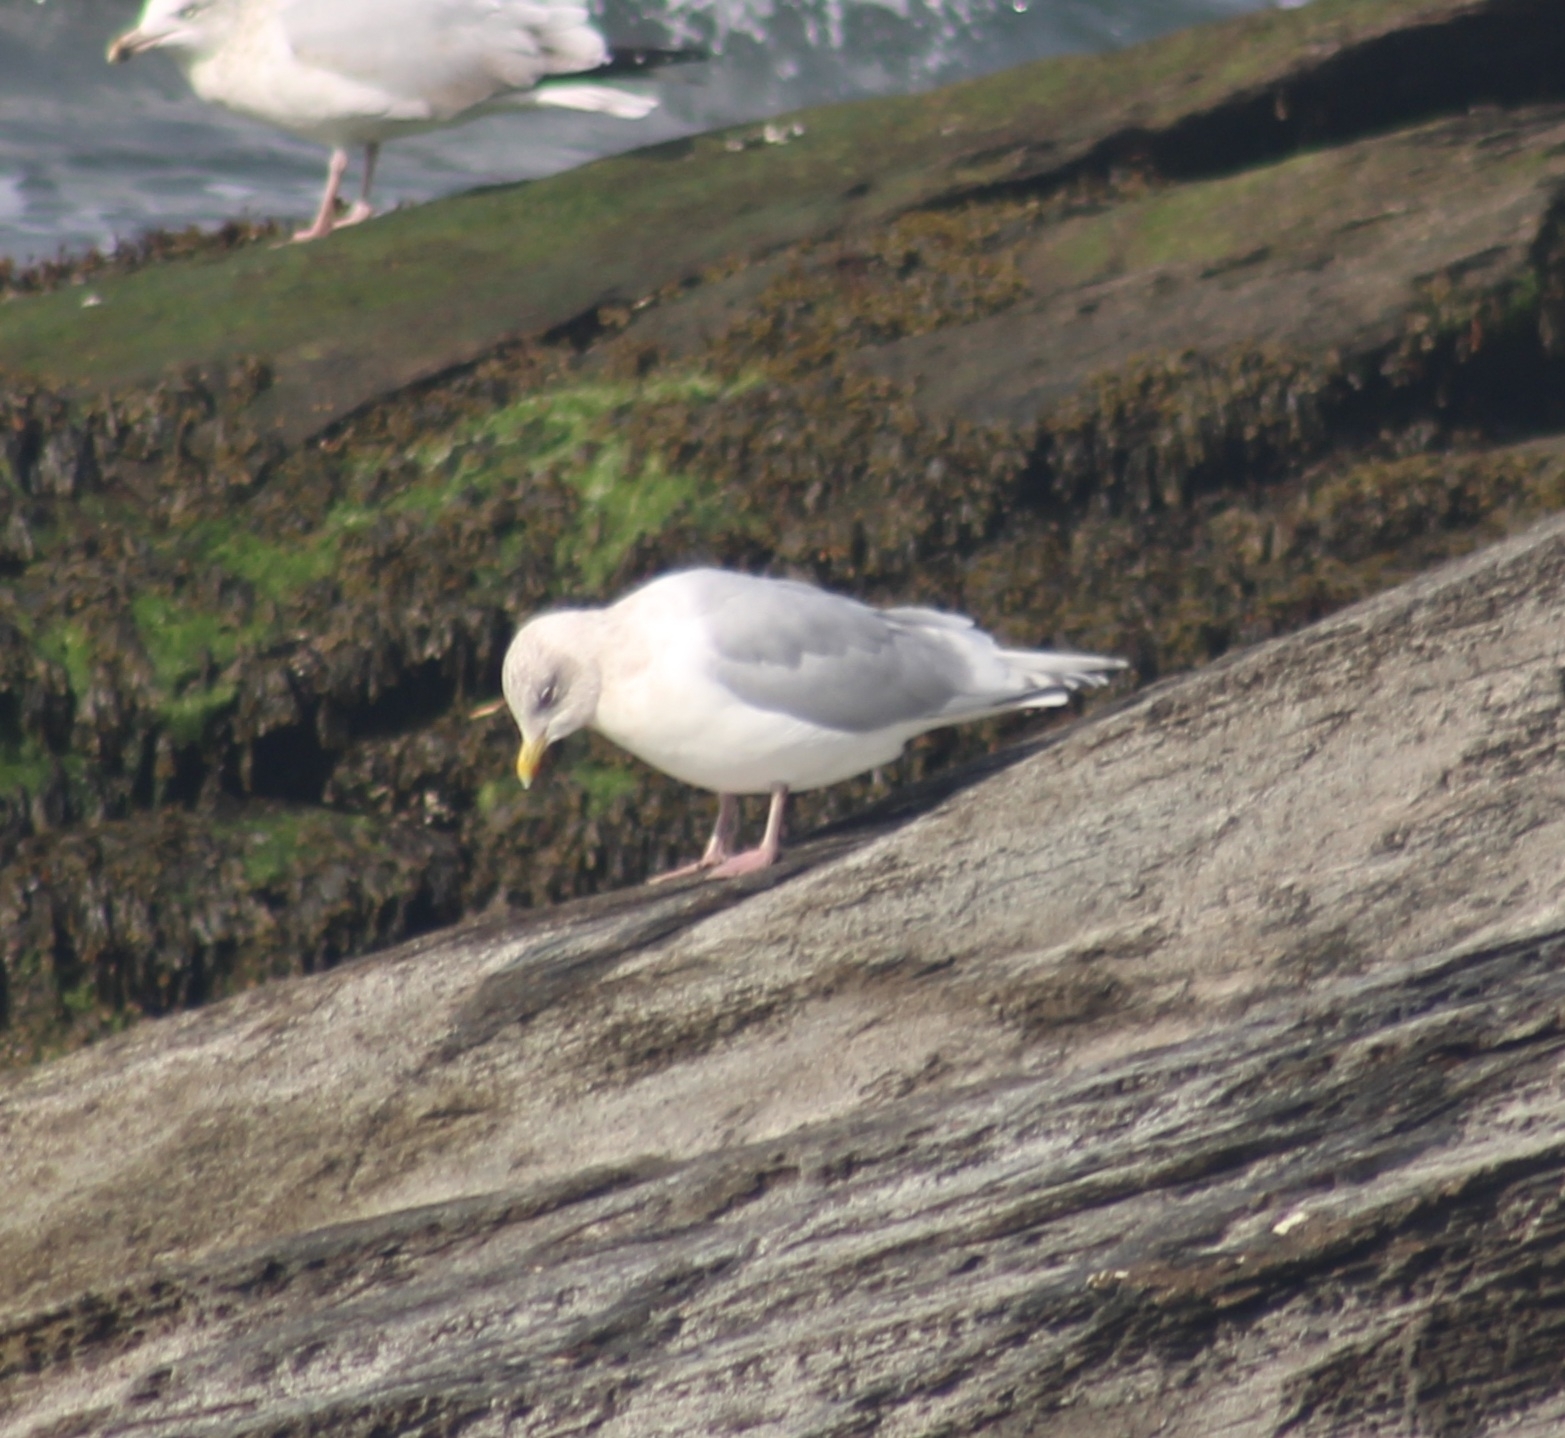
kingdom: Animalia
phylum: Chordata
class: Aves
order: Charadriiformes
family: Laridae
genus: Larus
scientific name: Larus glaucoides
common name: Iceland gull
